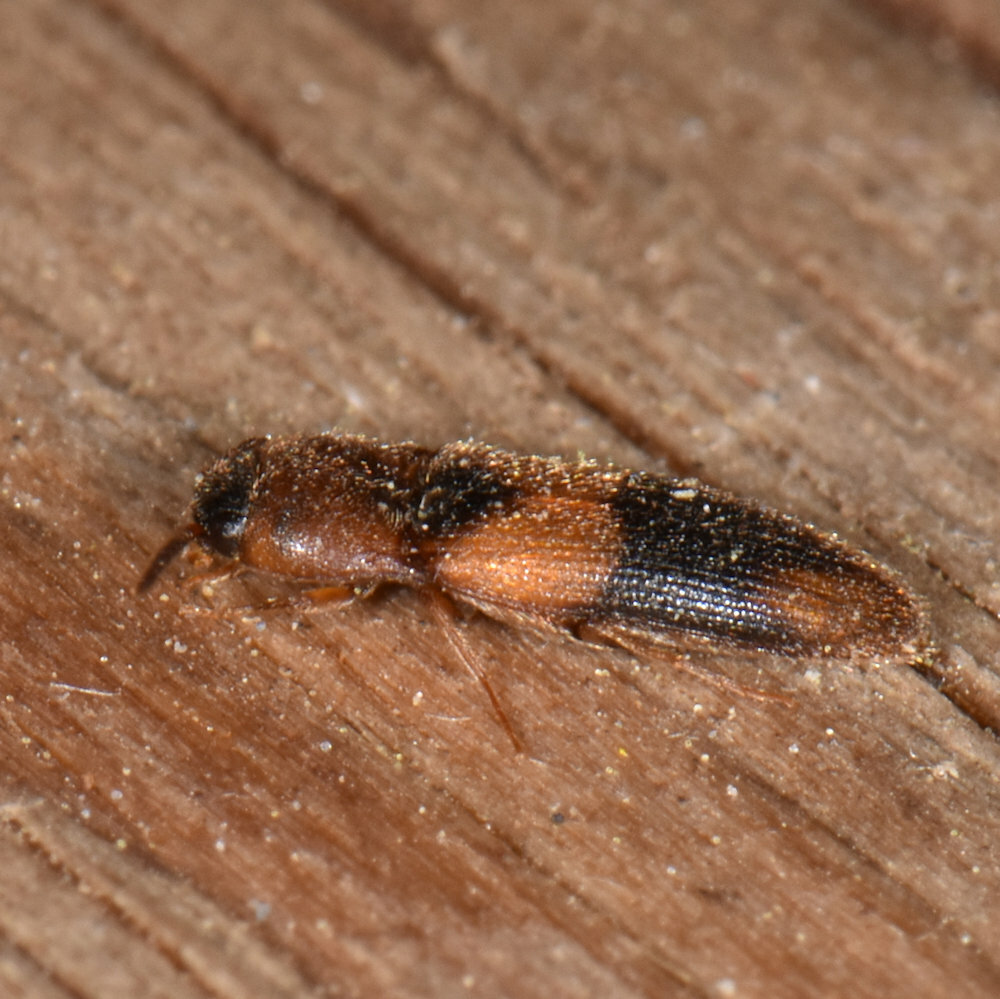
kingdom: Animalia
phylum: Arthropoda
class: Insecta
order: Coleoptera
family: Elateridae
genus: Ampedus
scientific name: Ampedus areolatus
